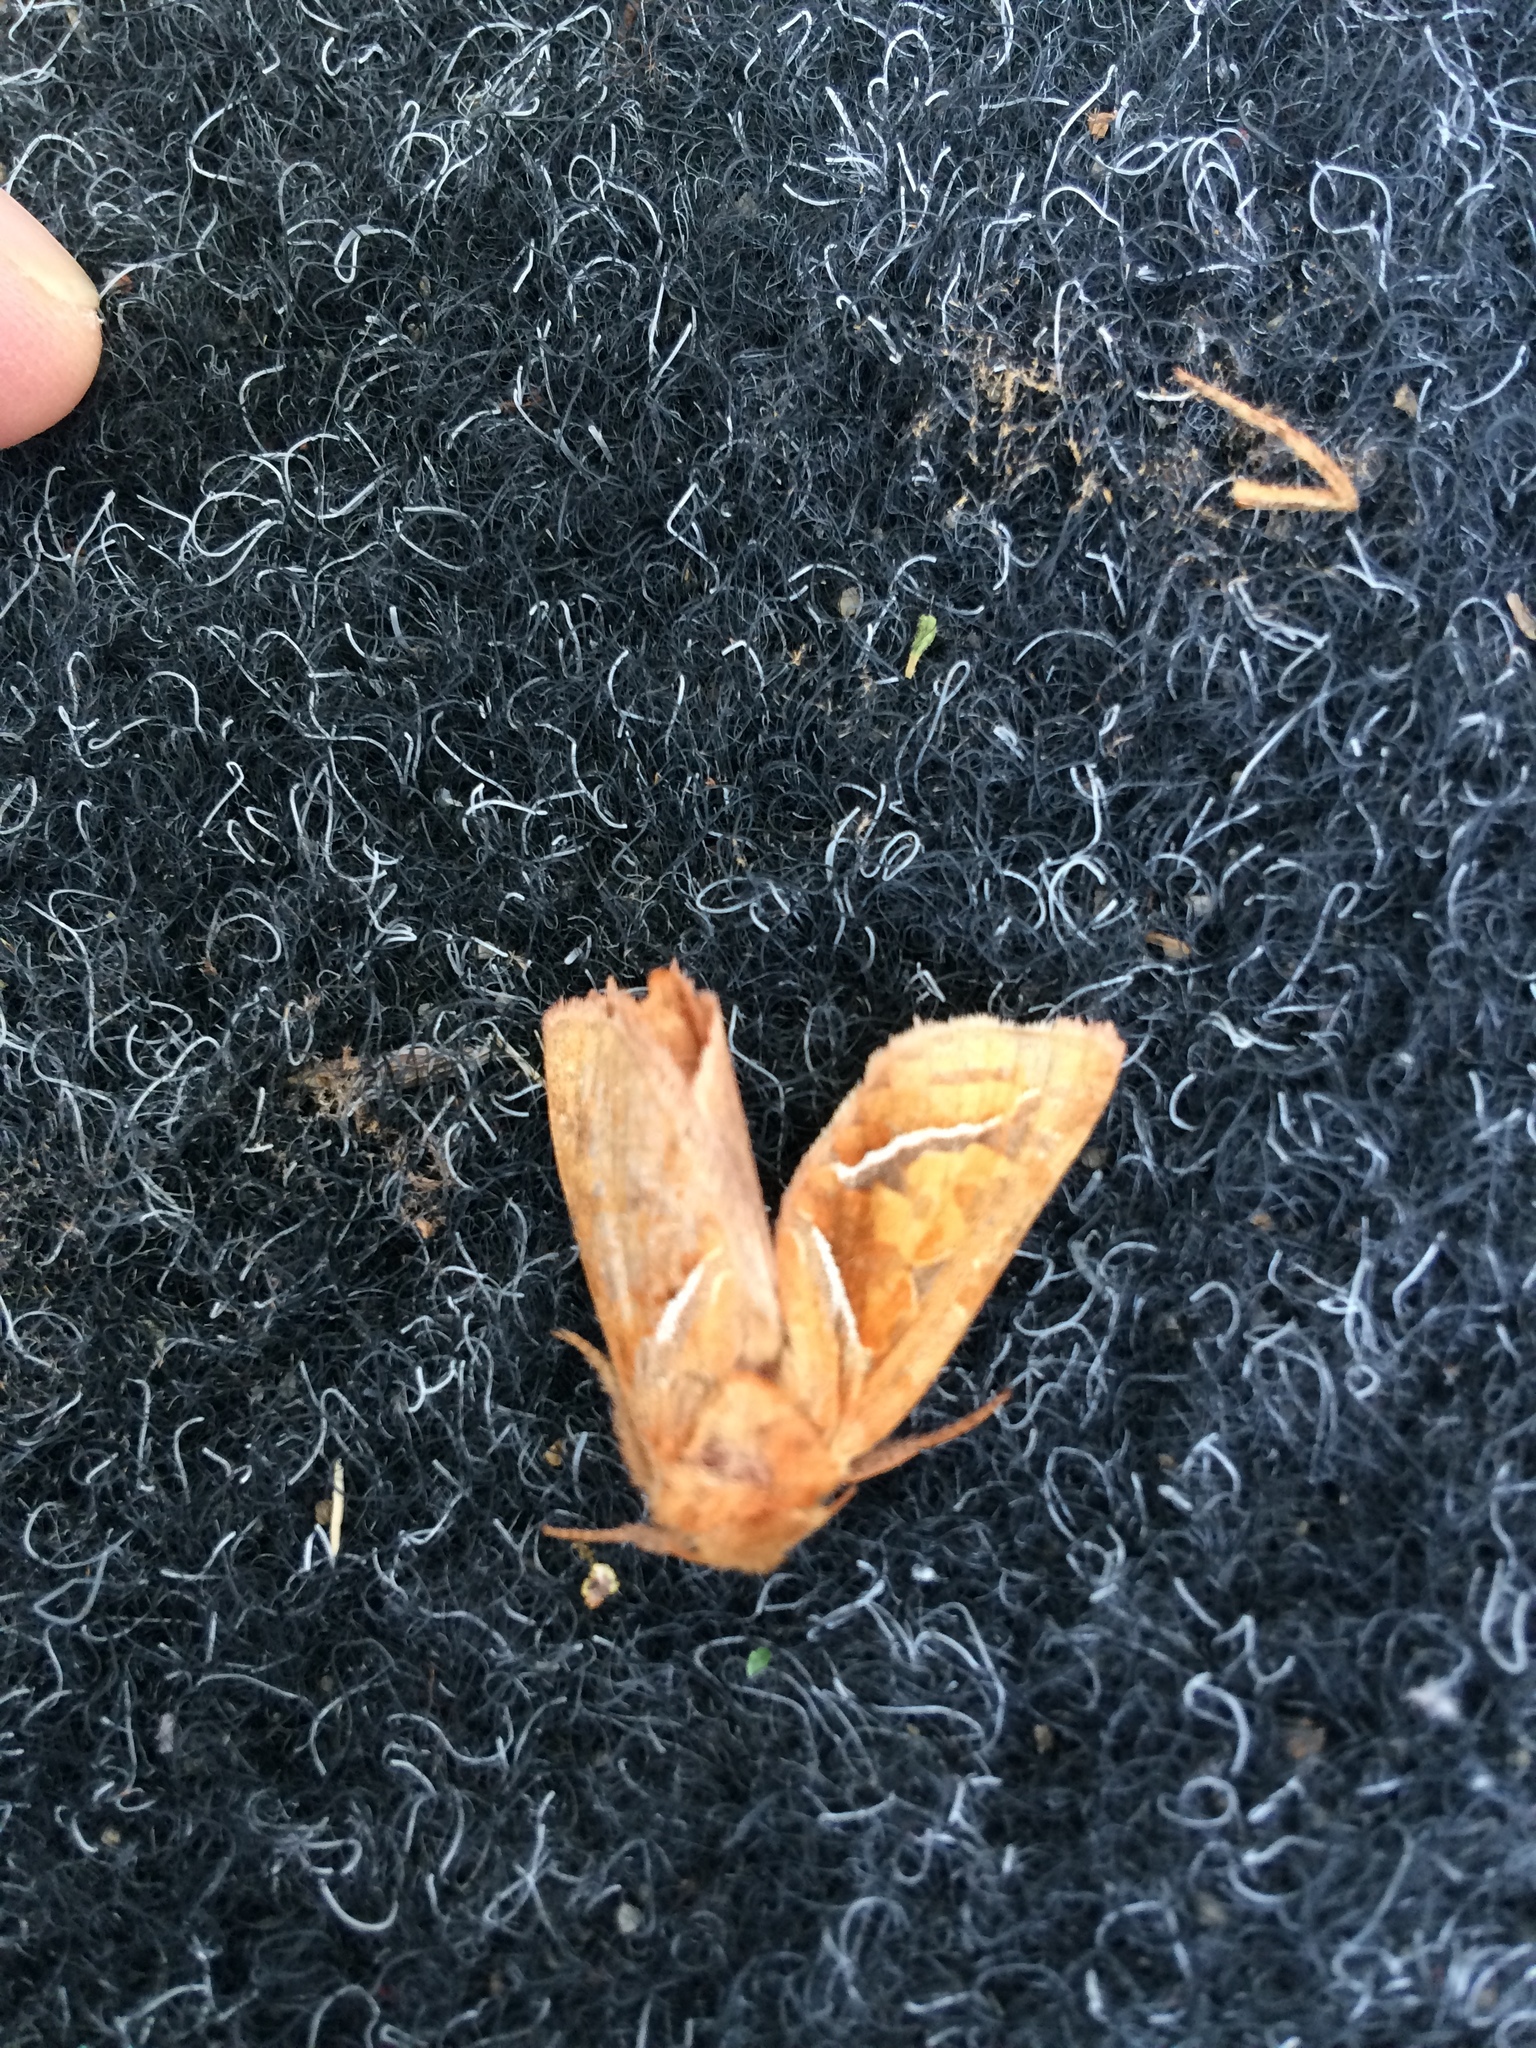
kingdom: Animalia
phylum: Arthropoda
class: Insecta
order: Lepidoptera
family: Hepialidae
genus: Triodia
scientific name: Triodia sylvina
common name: Orange swift
